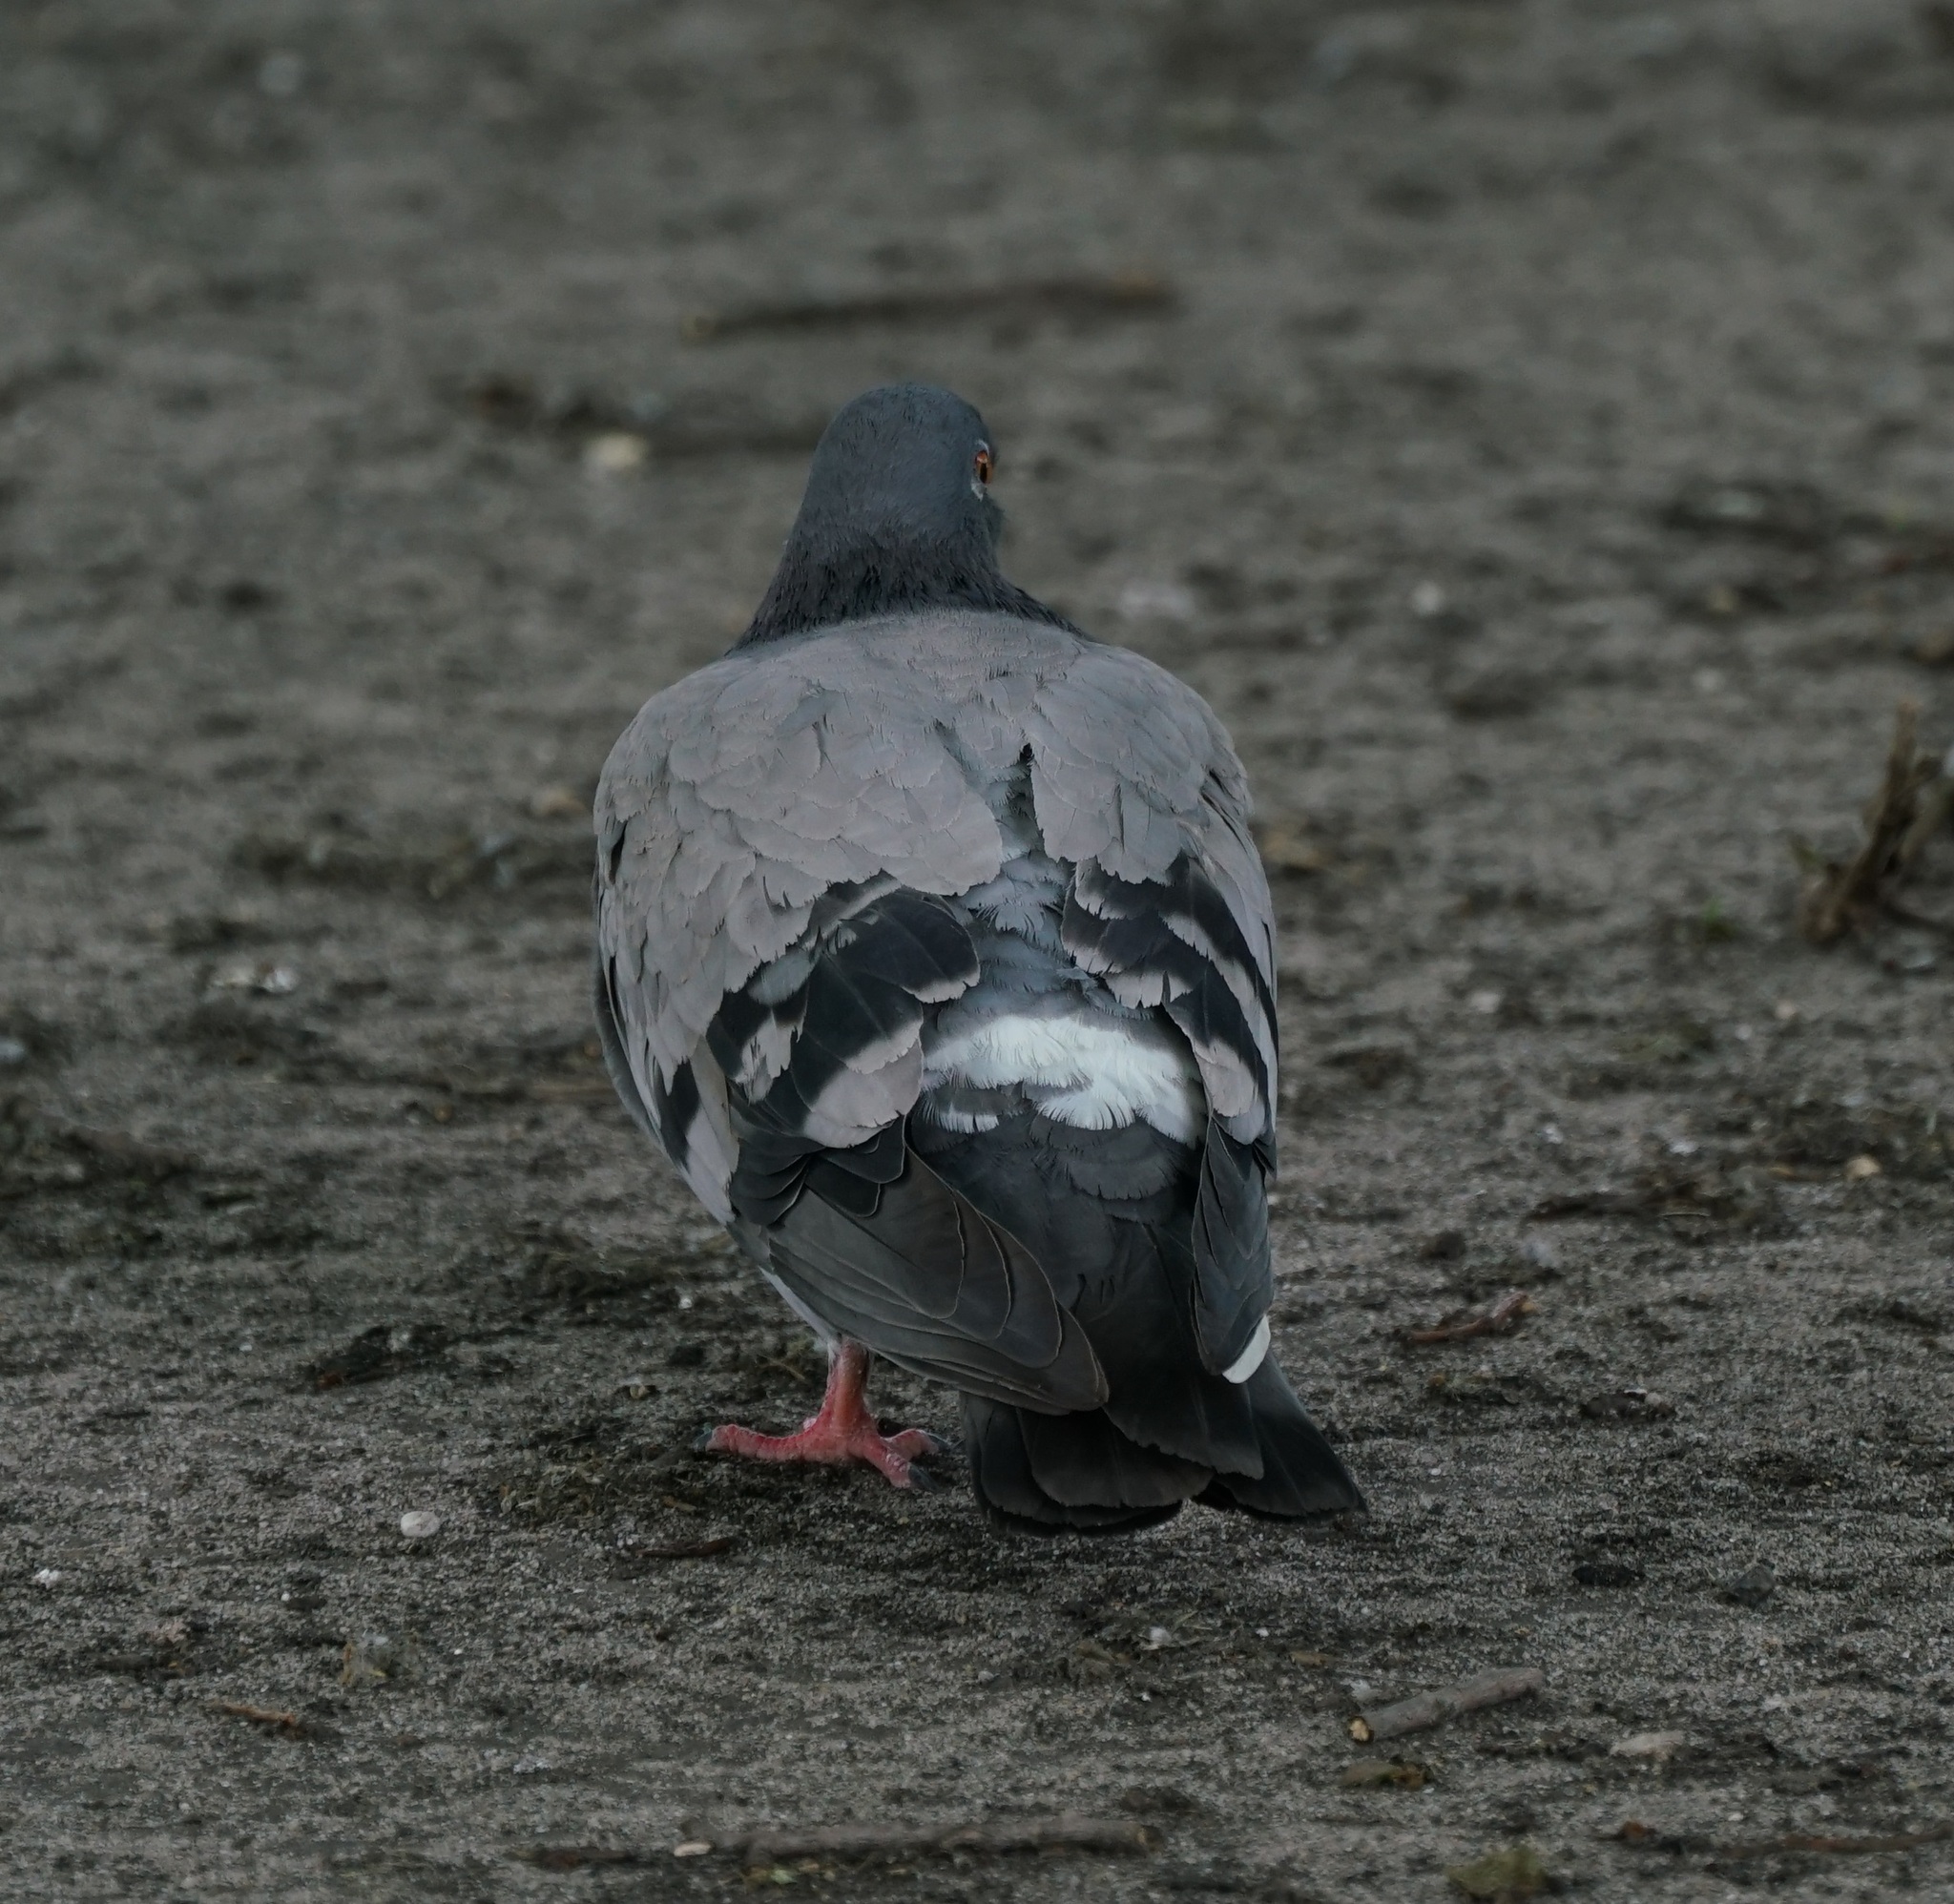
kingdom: Animalia
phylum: Chordata
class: Aves
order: Columbiformes
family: Columbidae
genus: Columba
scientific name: Columba livia
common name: Rock pigeon
